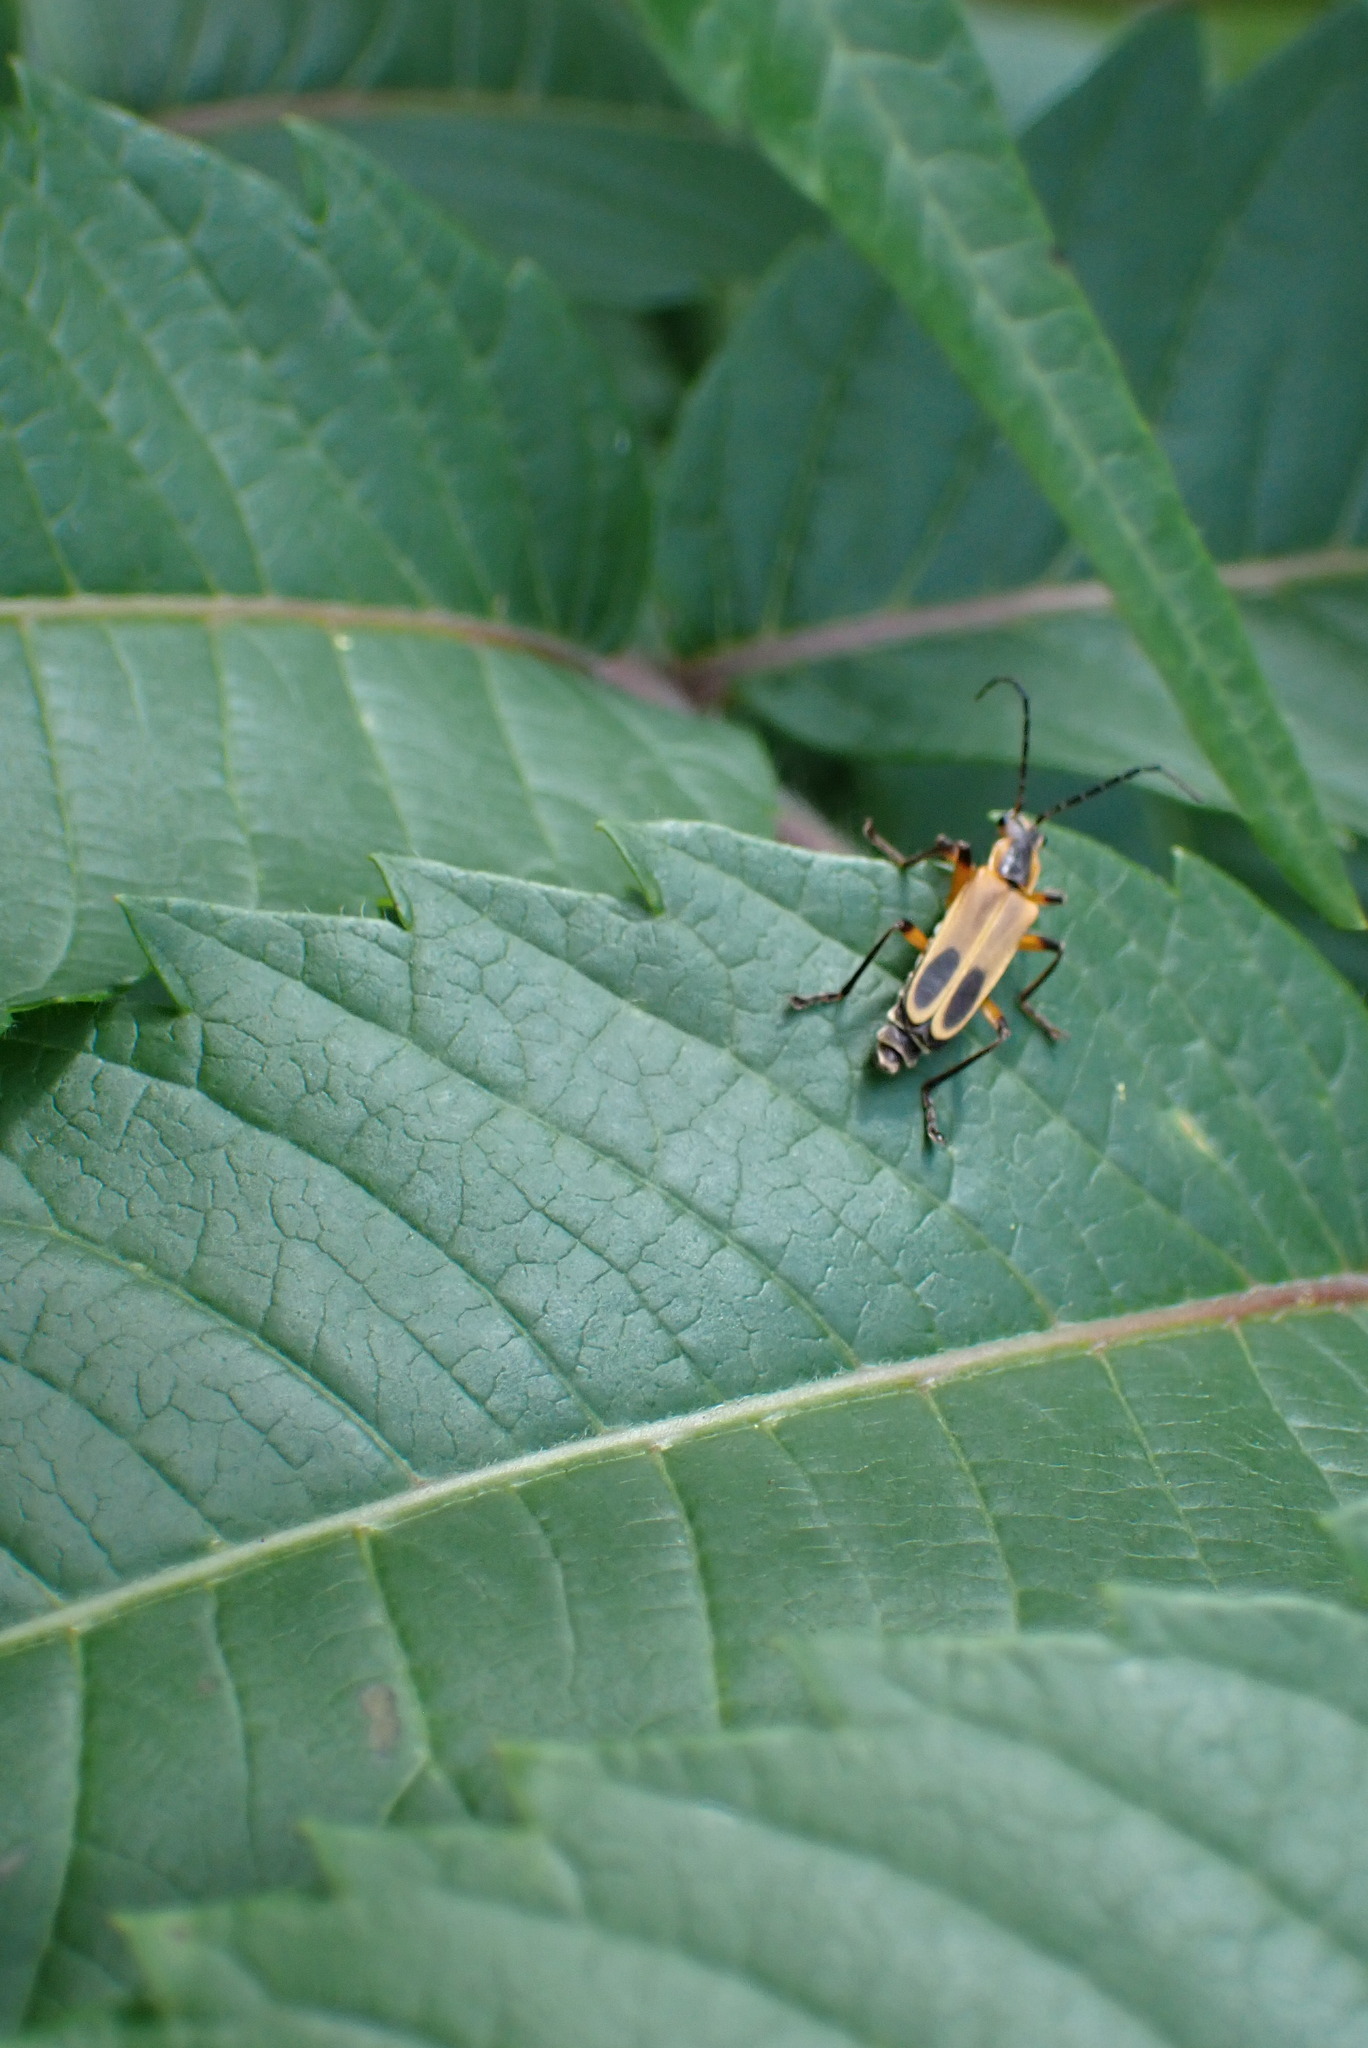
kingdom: Animalia
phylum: Arthropoda
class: Insecta
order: Coleoptera
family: Cantharidae
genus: Chauliognathus
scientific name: Chauliognathus marginatus
